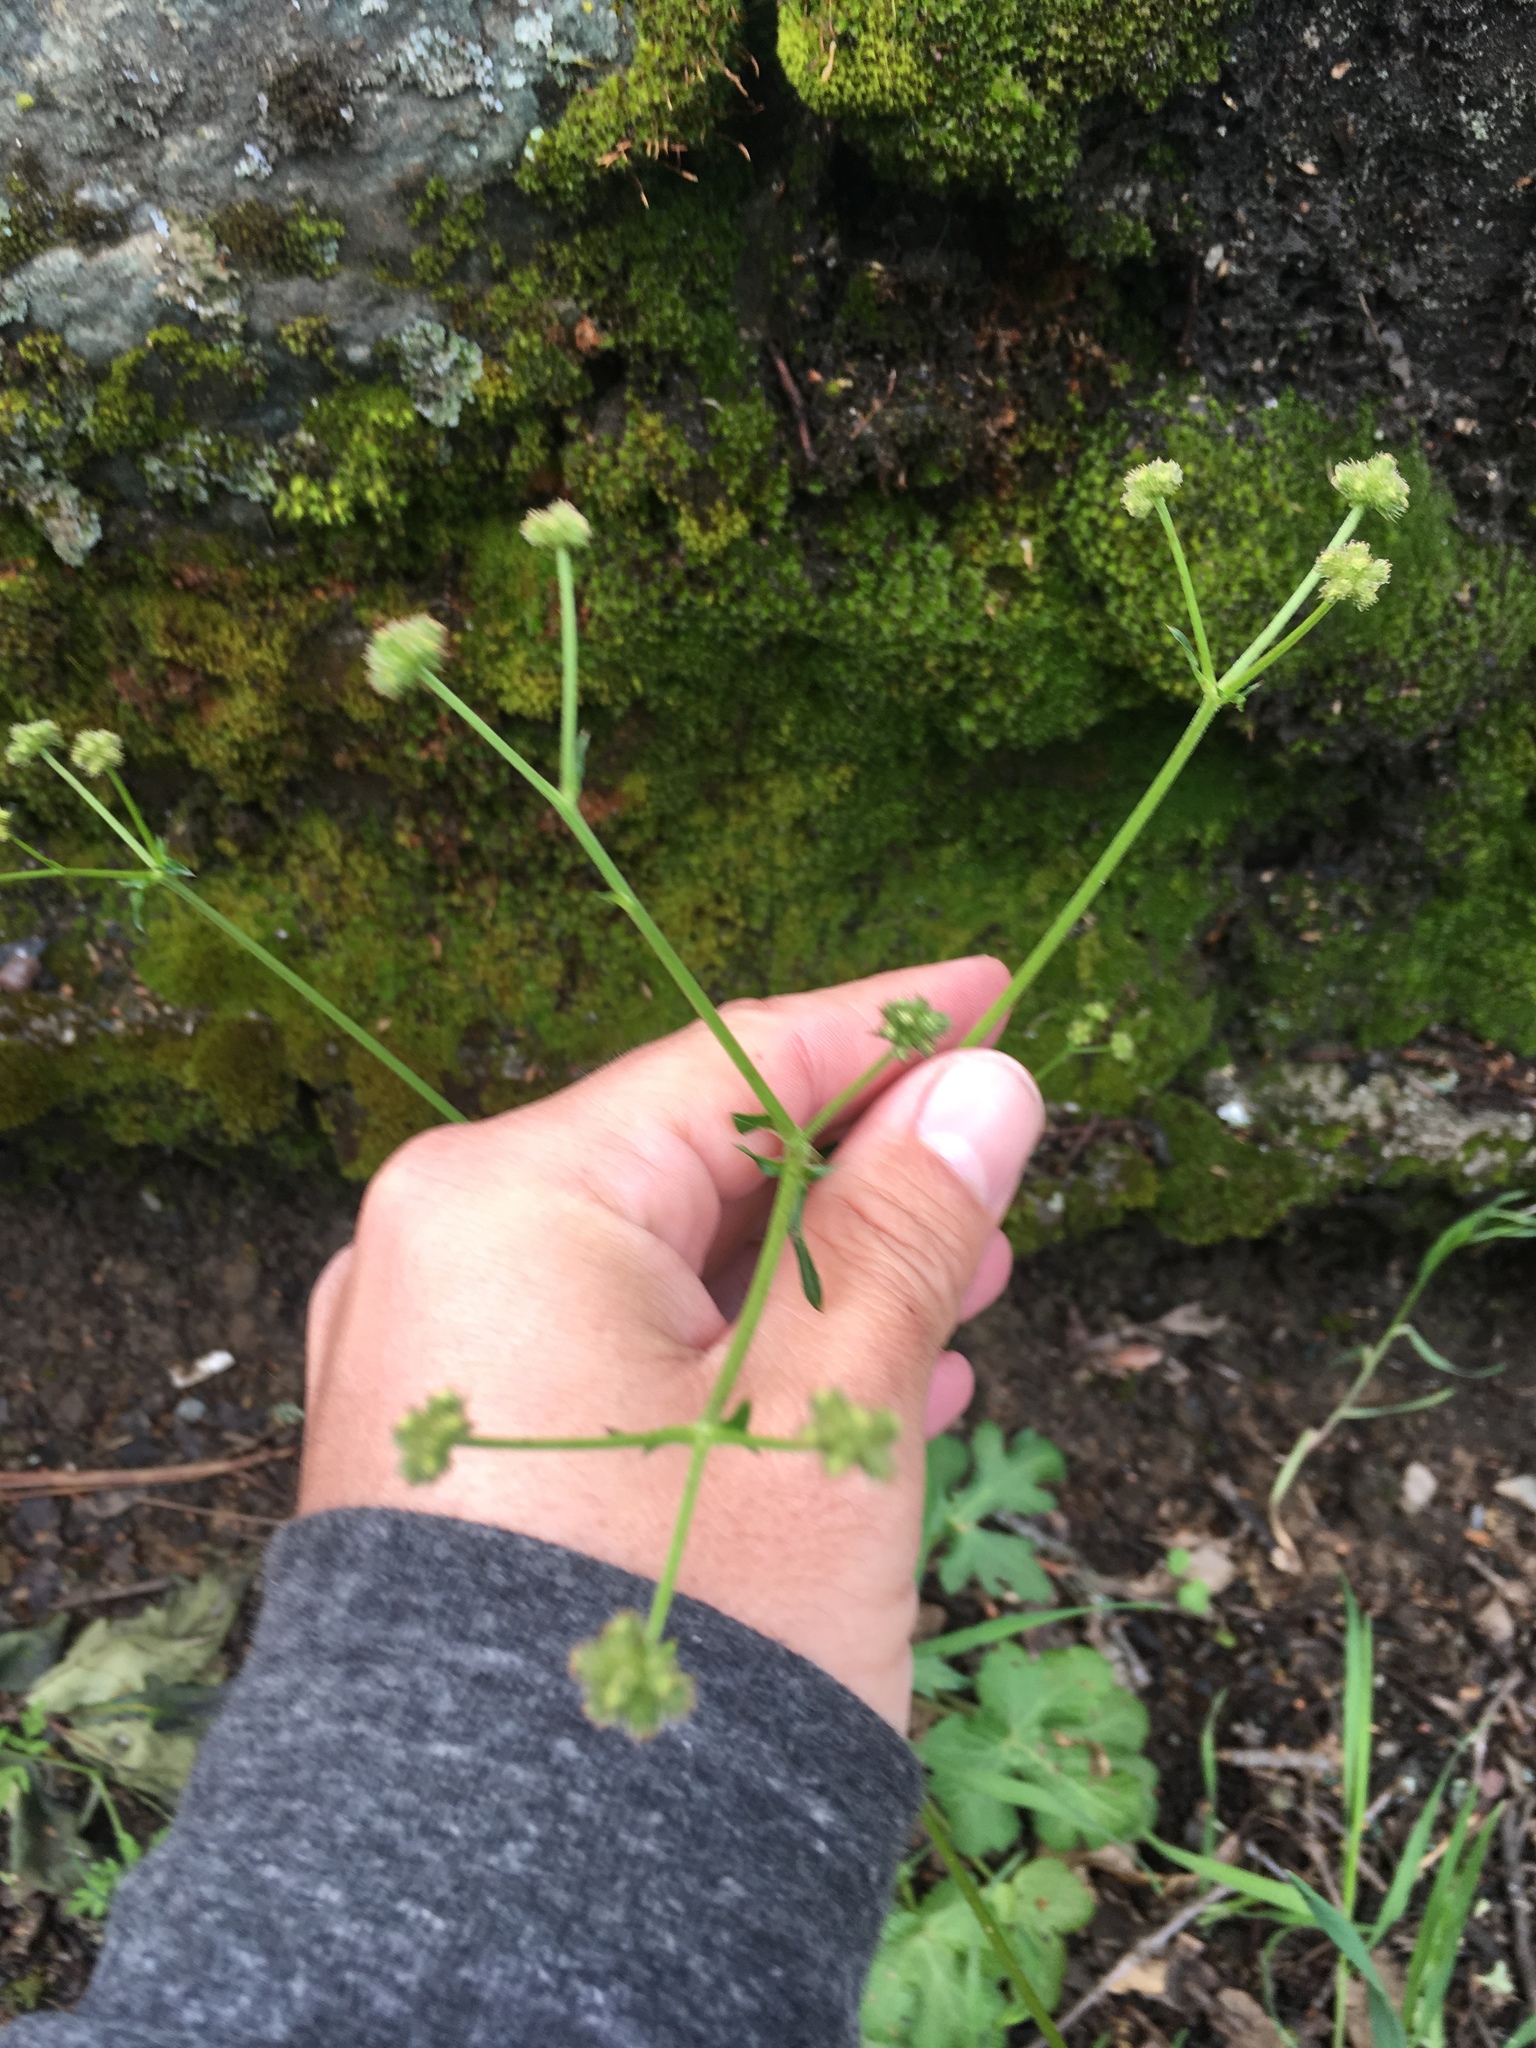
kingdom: Plantae
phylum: Tracheophyta
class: Magnoliopsida
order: Apiales
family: Apiaceae
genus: Sanicula
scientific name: Sanicula crassicaulis
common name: Western snakeroot
